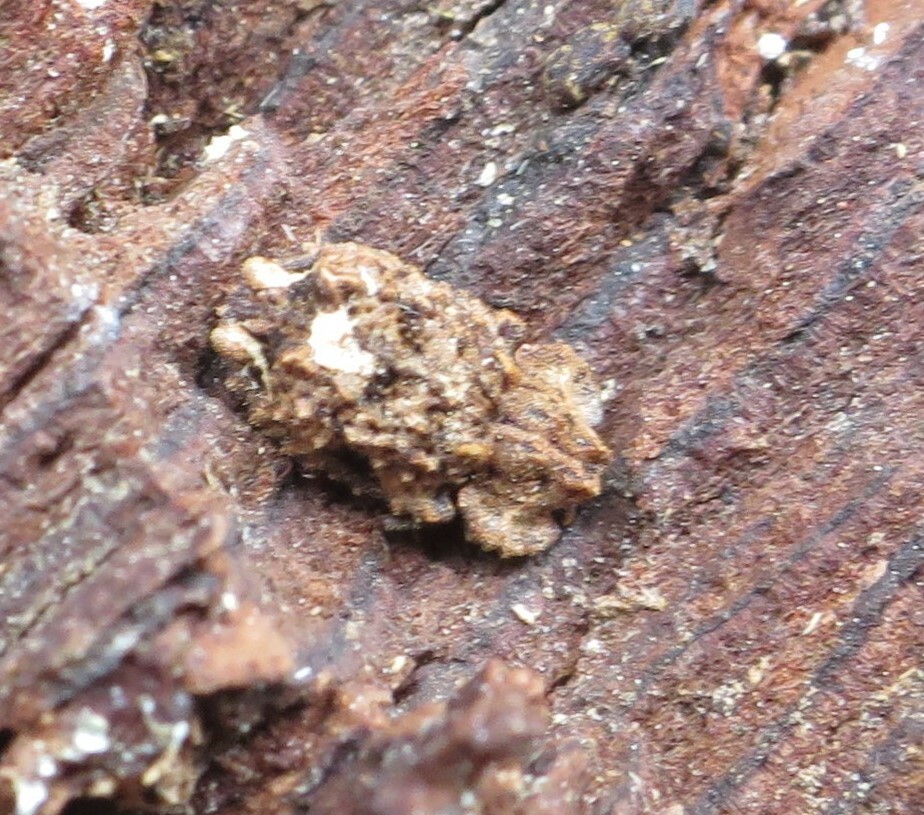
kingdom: Animalia
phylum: Arthropoda
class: Insecta
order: Coleoptera
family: Zopheridae
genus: Pristoderus
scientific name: Pristoderus
